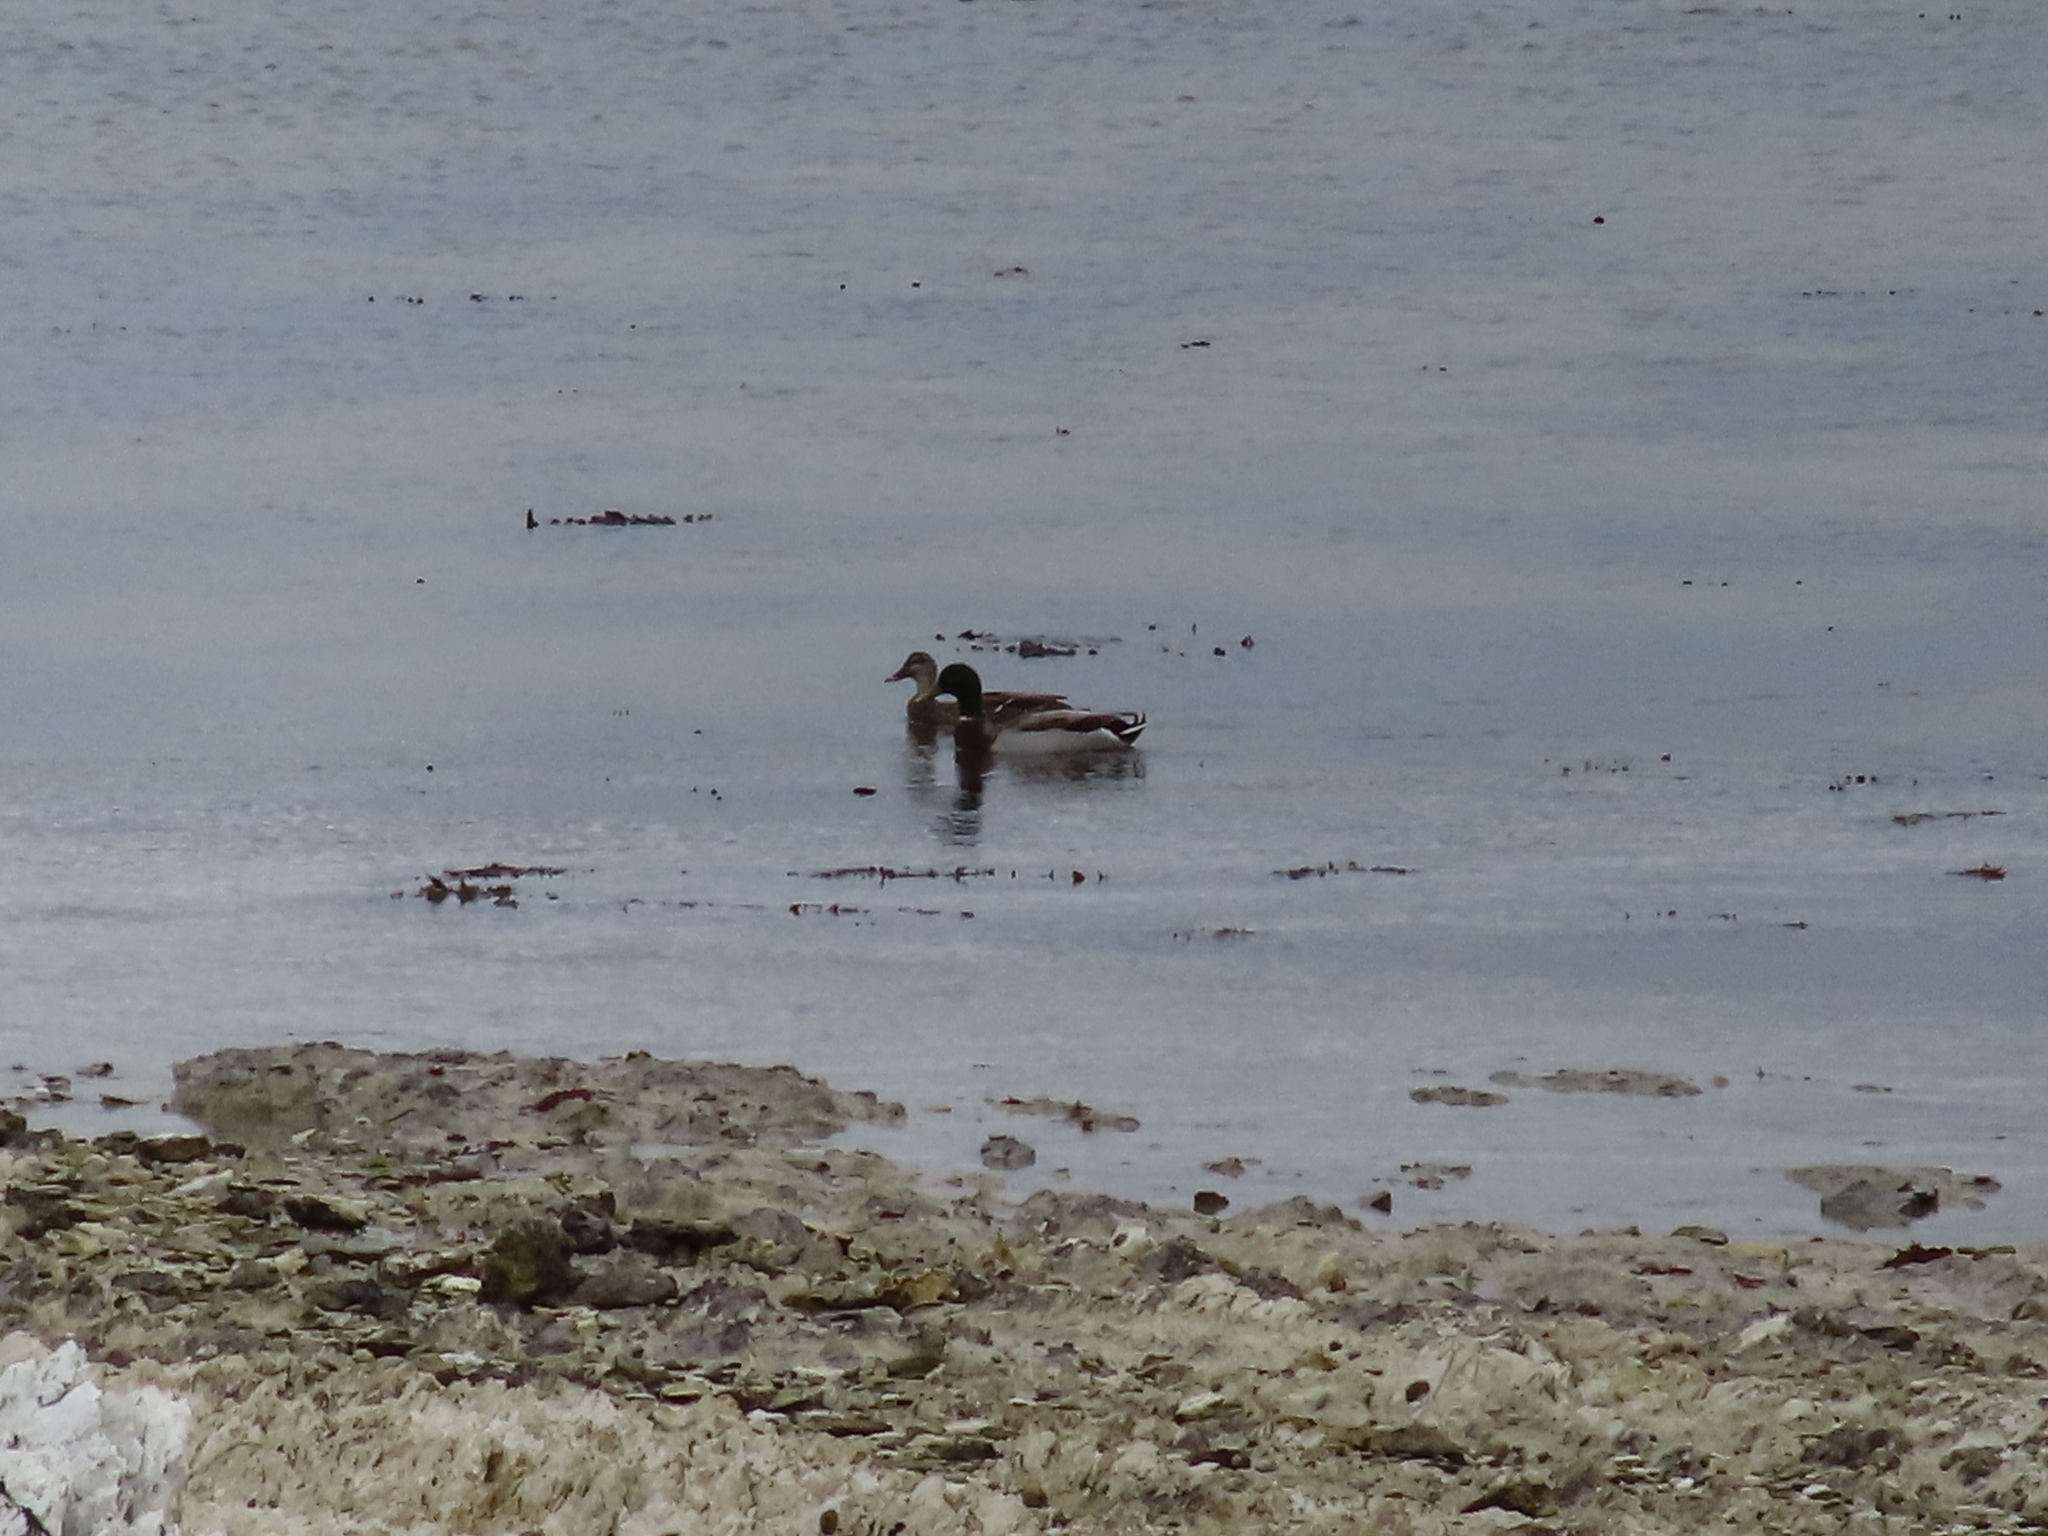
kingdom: Animalia
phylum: Chordata
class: Aves
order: Anseriformes
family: Anatidae
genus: Anas
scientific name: Anas platyrhynchos
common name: Mallard
